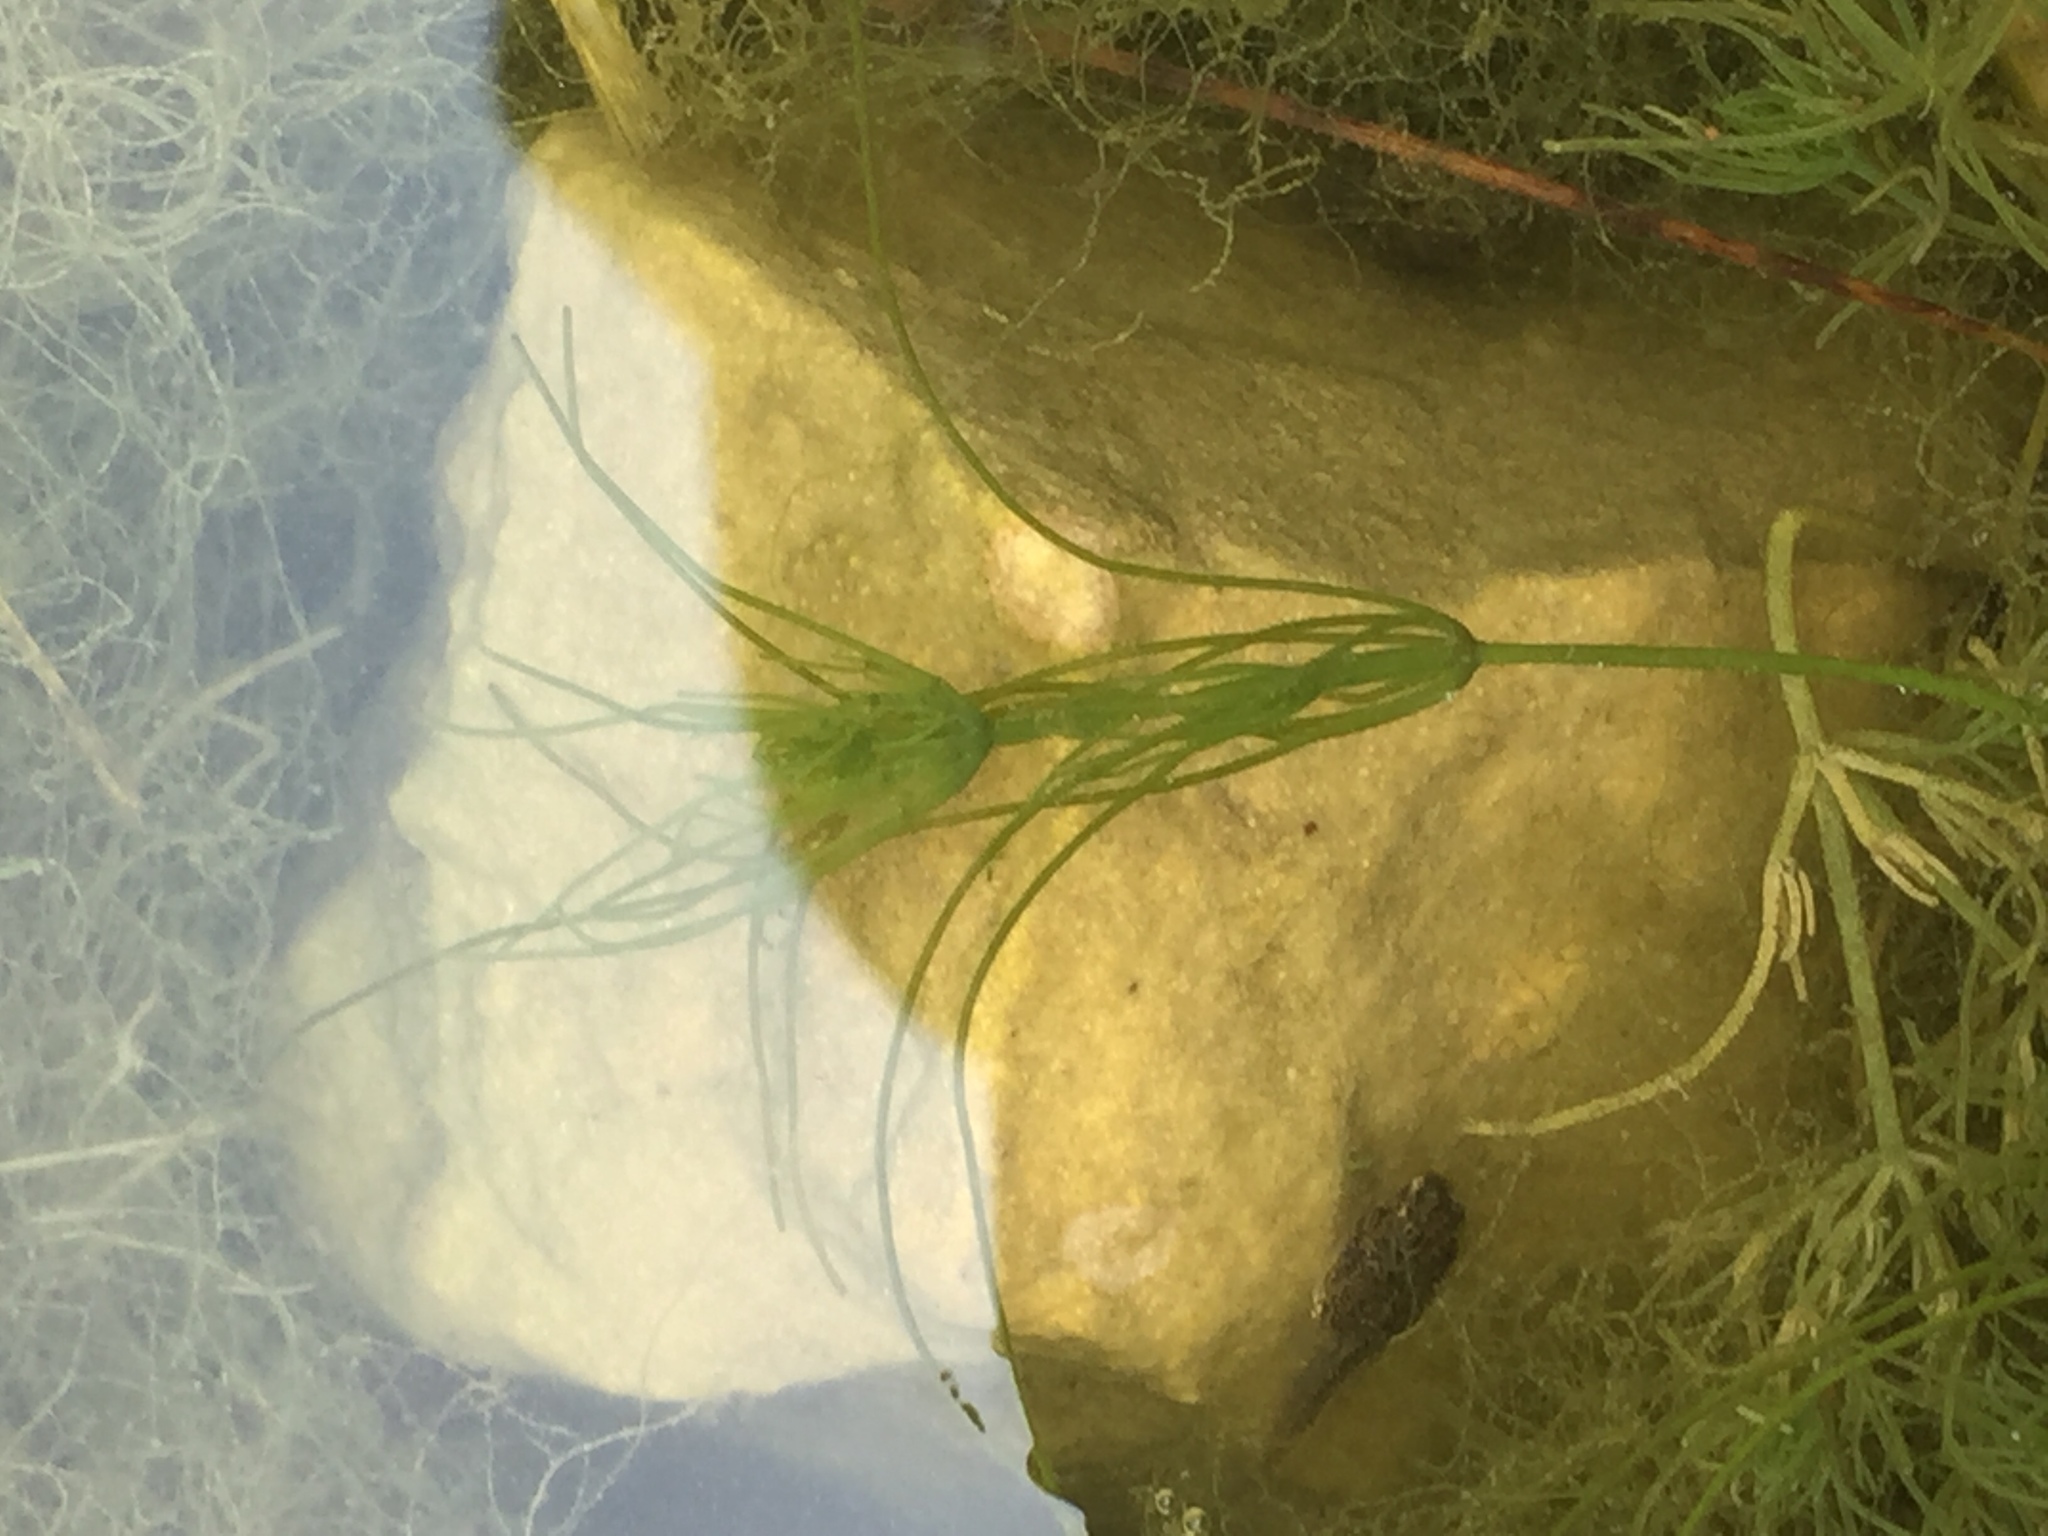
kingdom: Plantae
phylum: Charophyta
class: Charophyceae
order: Charales
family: Characeae
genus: Chara
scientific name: Chara vulgaris
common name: Common stonewort
